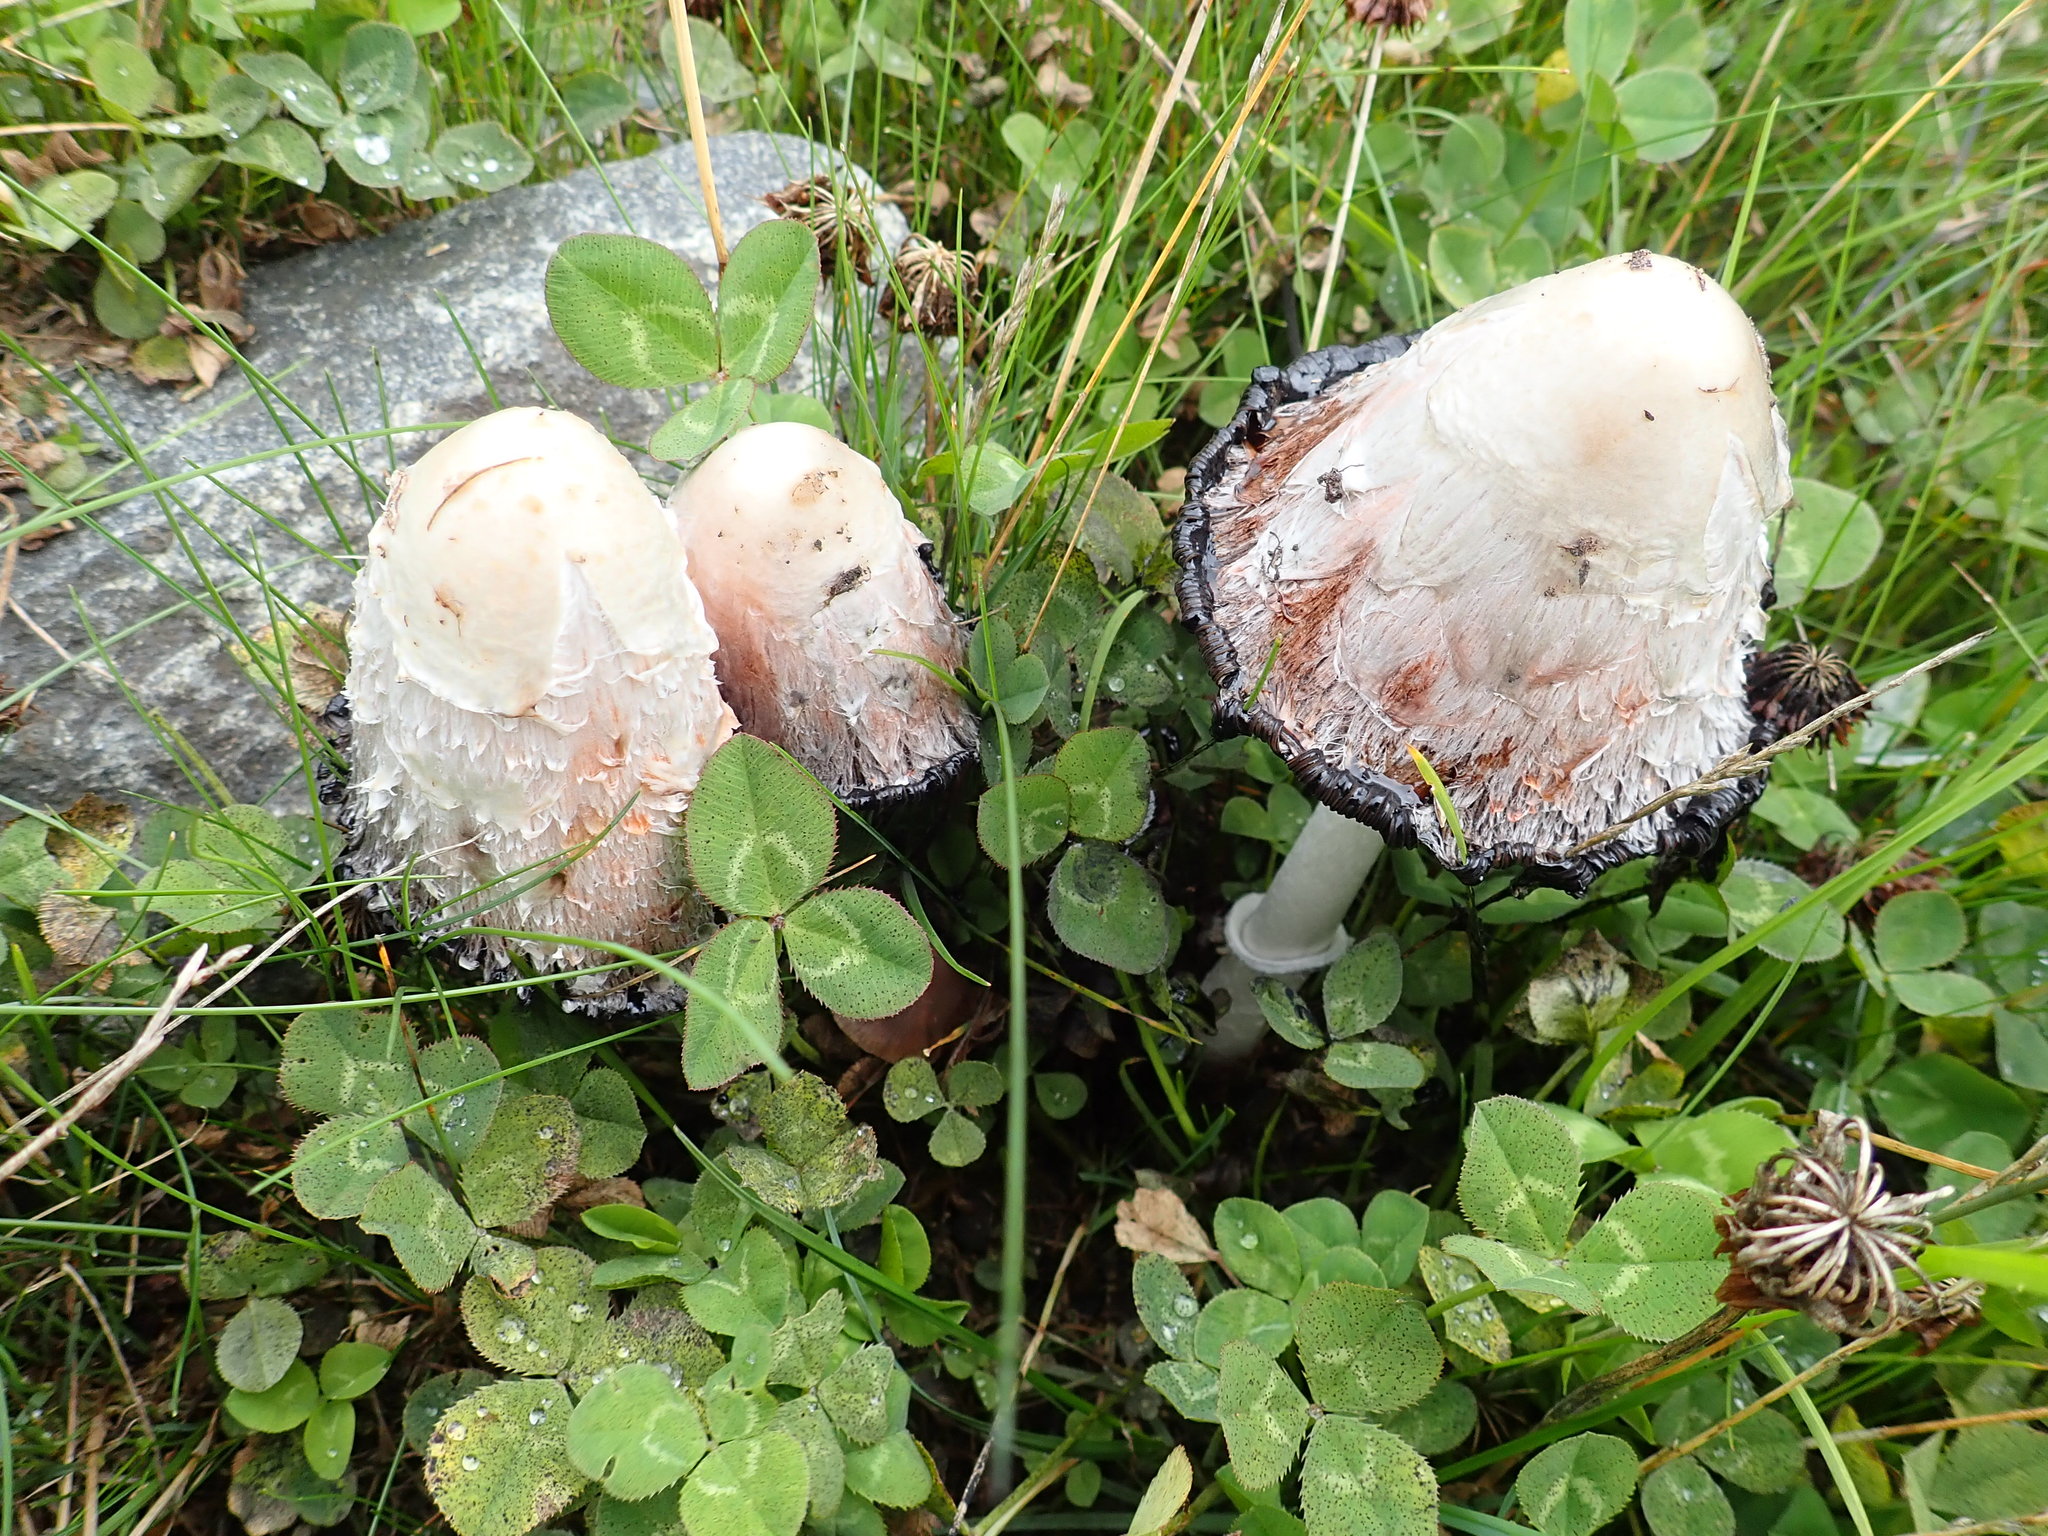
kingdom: Fungi
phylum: Basidiomycota
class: Agaricomycetes
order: Agaricales
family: Agaricaceae
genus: Coprinus
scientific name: Coprinus comatus
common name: Lawyer's wig
